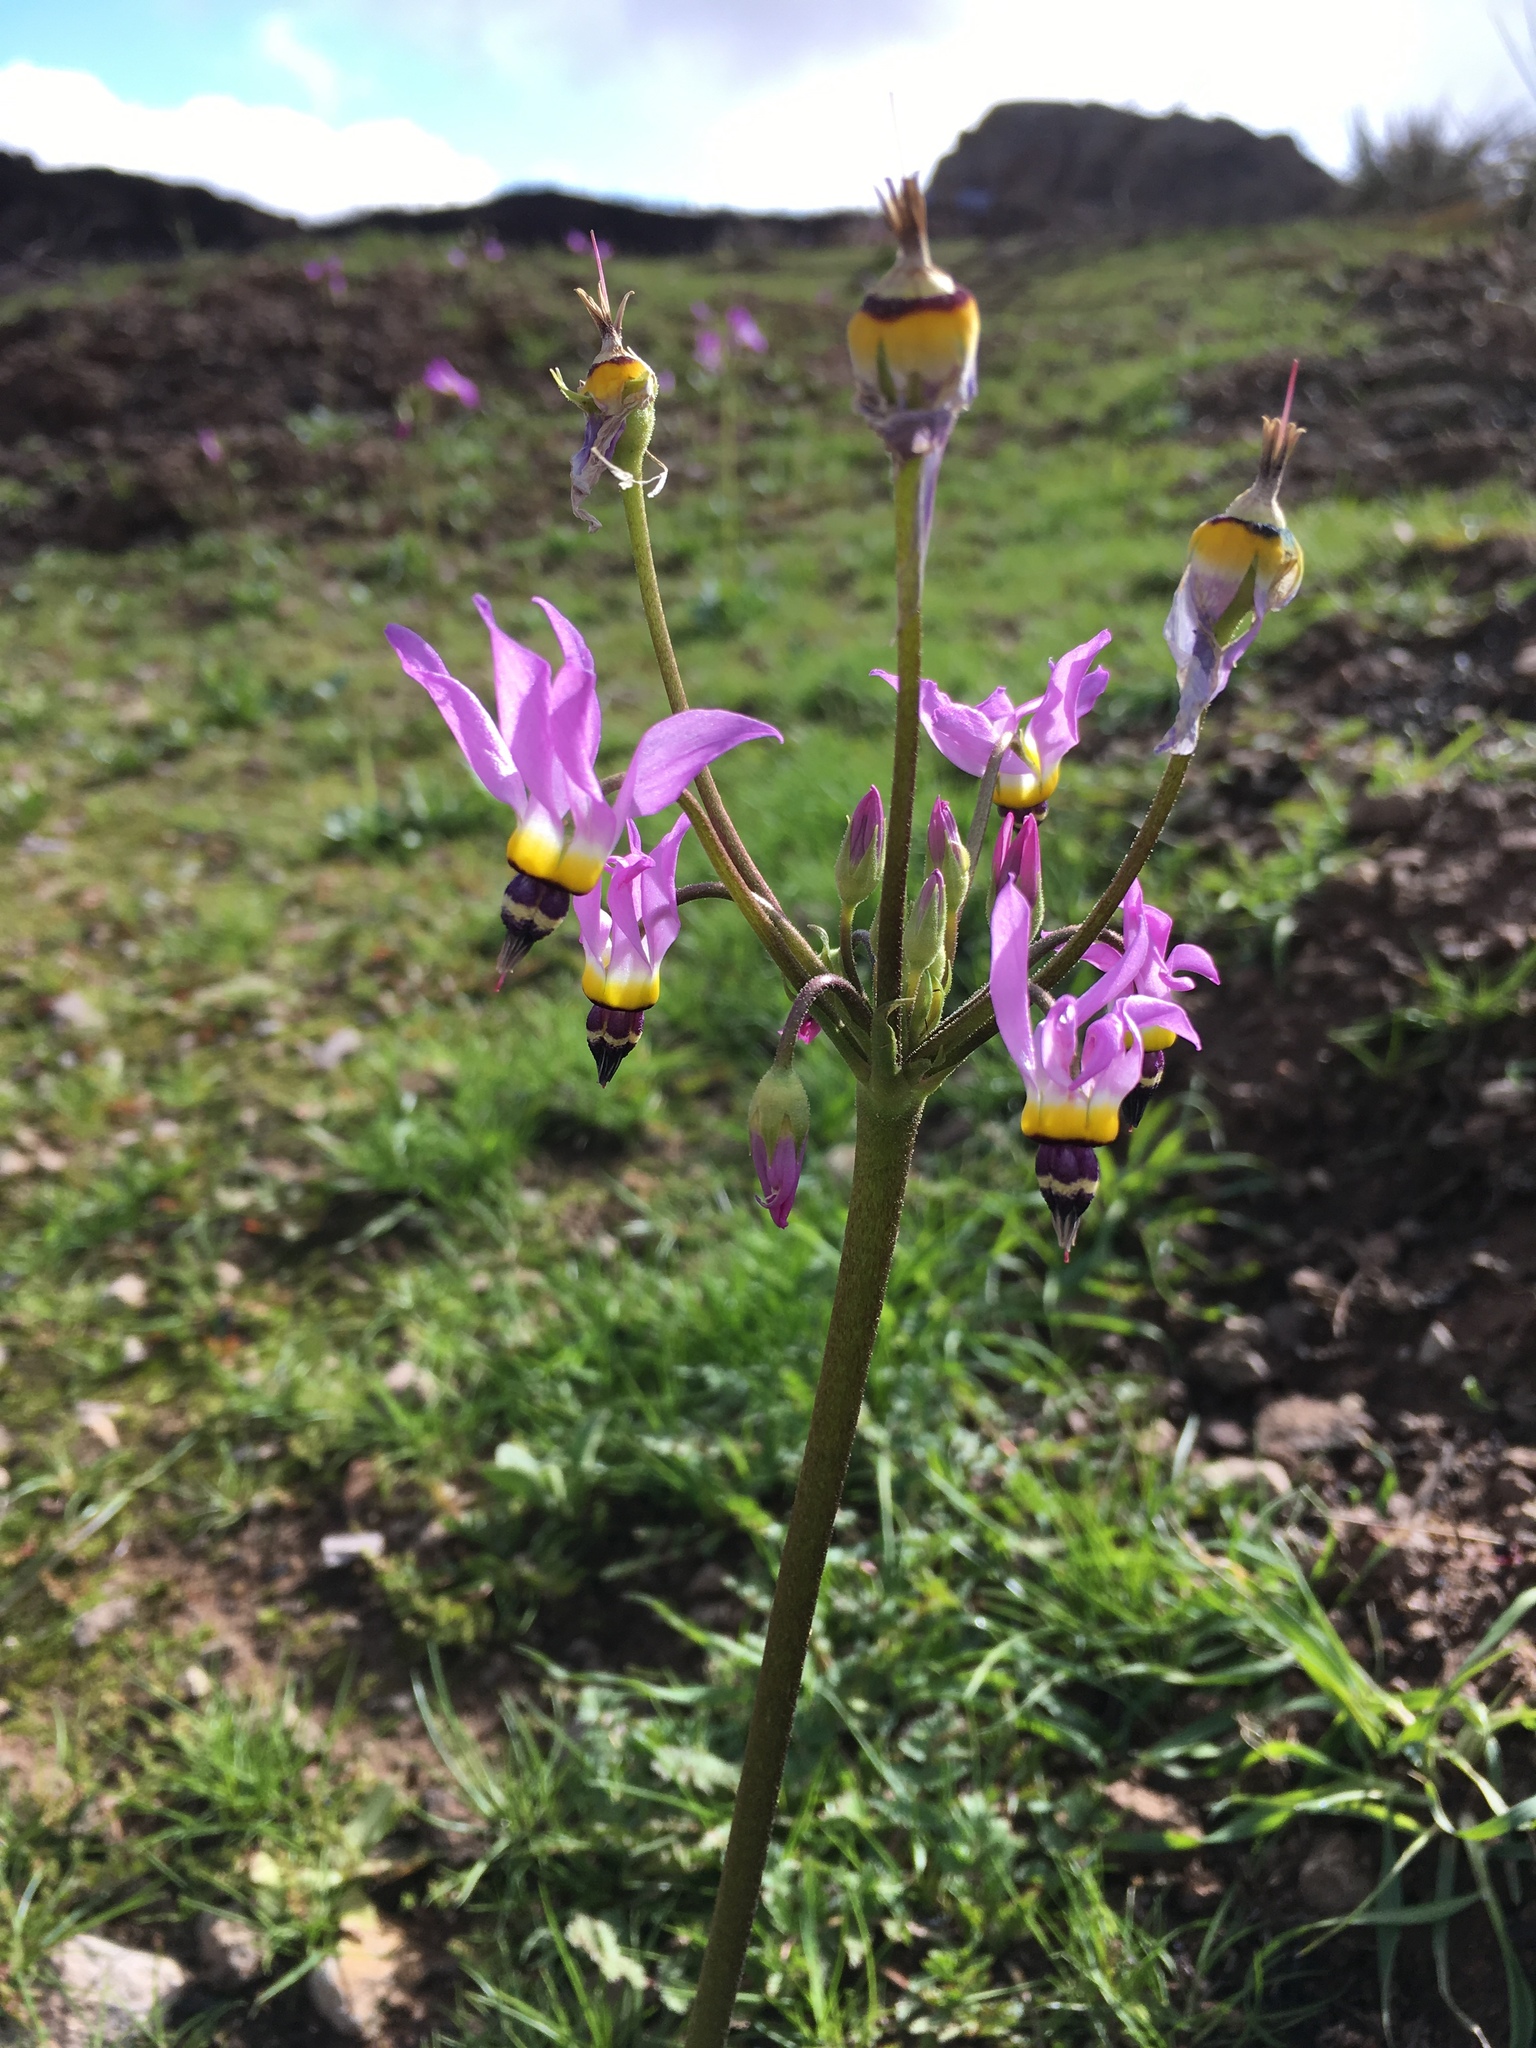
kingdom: Plantae
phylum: Tracheophyta
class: Magnoliopsida
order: Ericales
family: Primulaceae
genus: Dodecatheon
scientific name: Dodecatheon clevelandii
